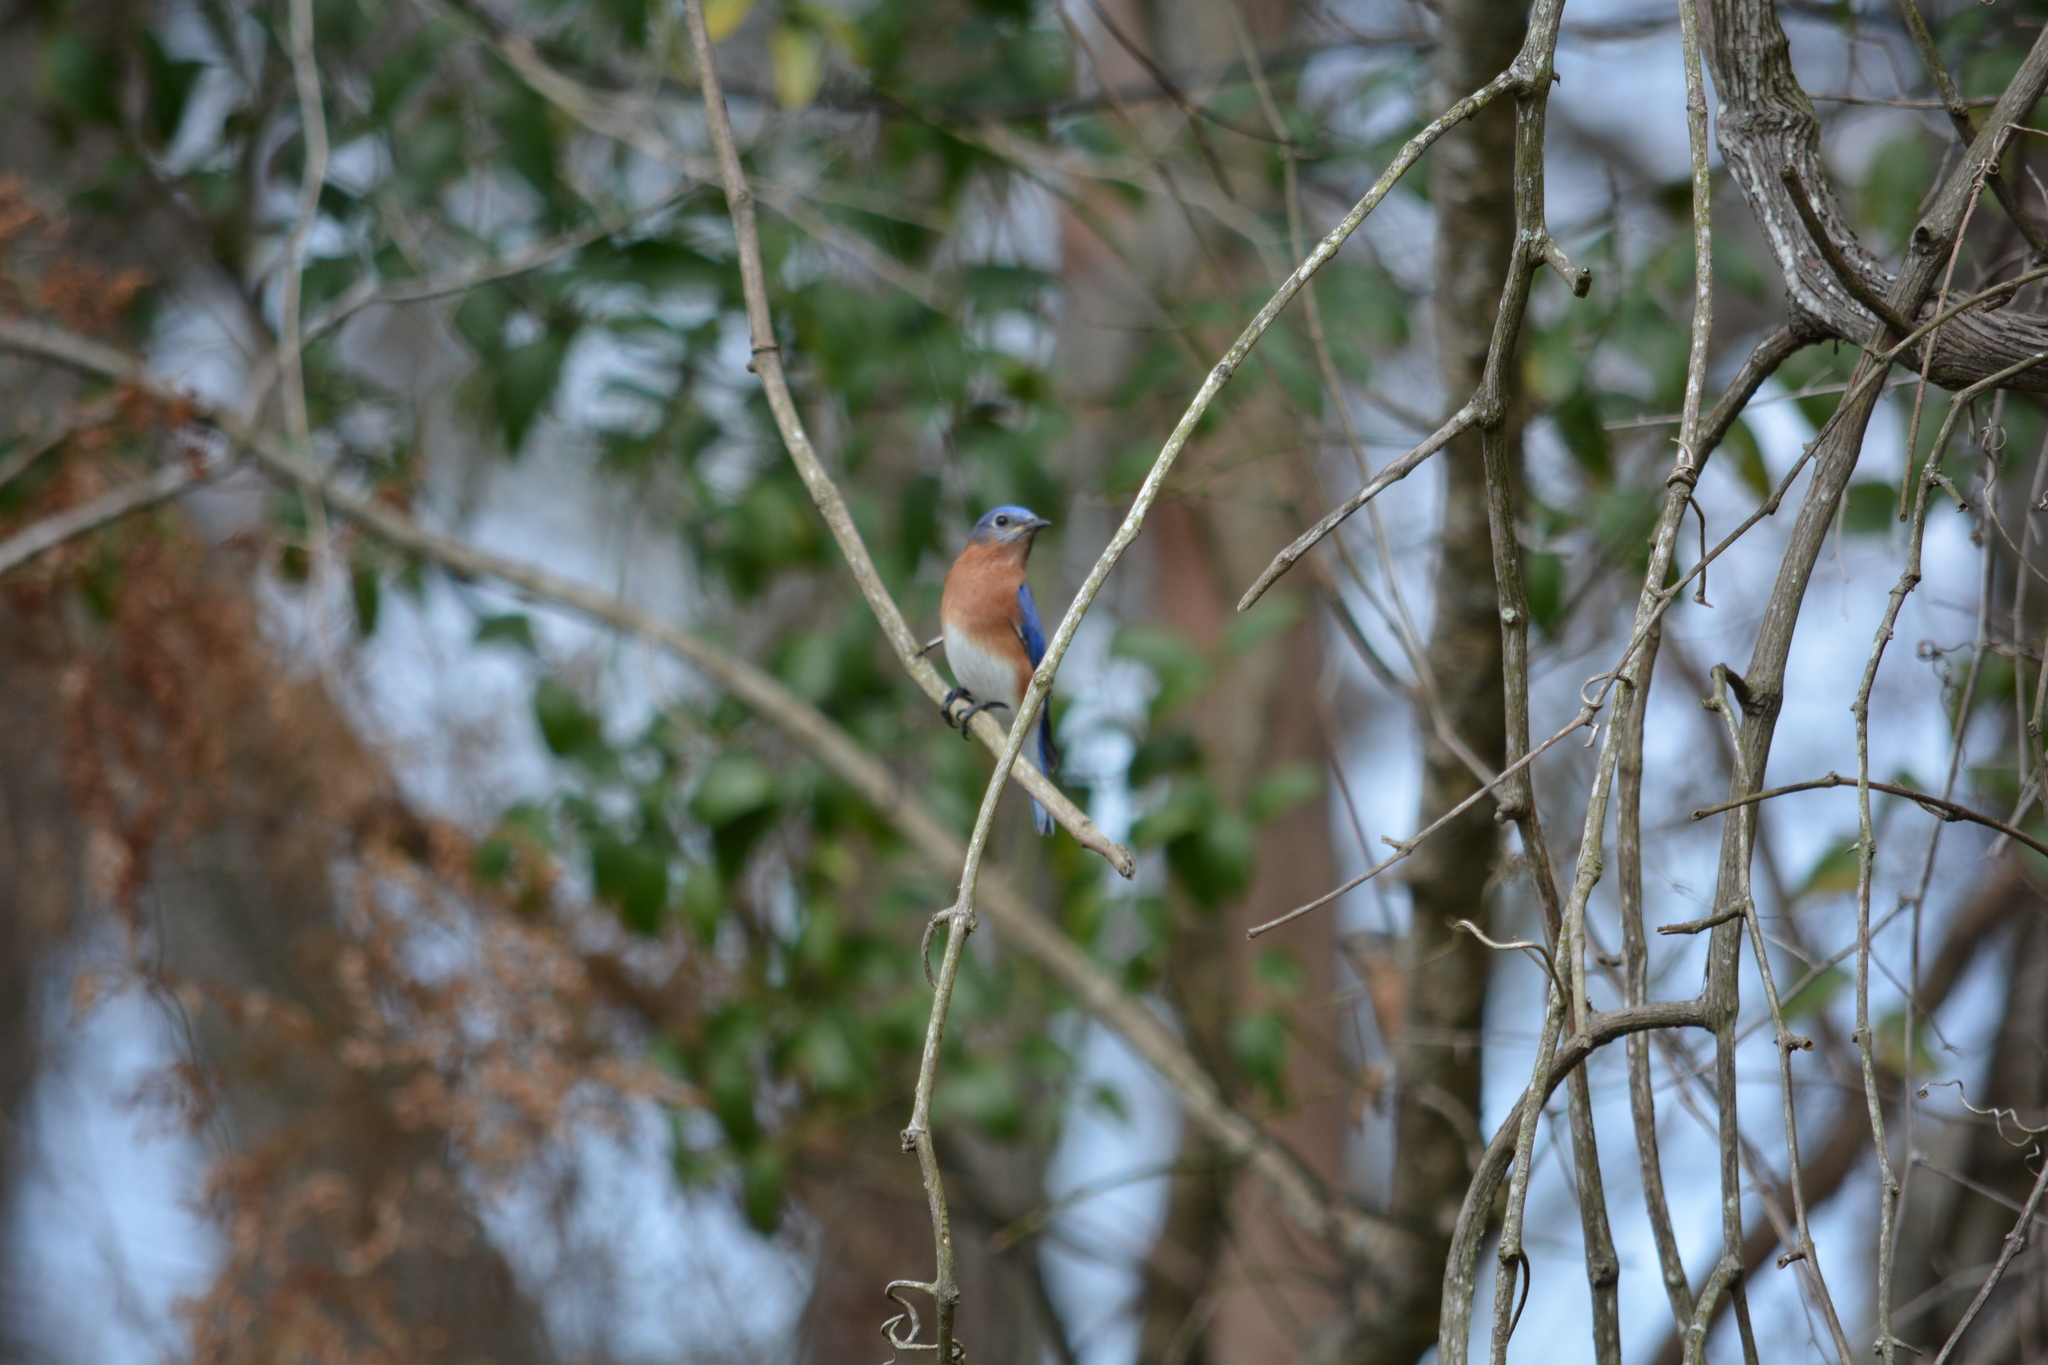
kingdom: Animalia
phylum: Chordata
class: Aves
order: Passeriformes
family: Turdidae
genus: Sialia
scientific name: Sialia sialis
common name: Eastern bluebird
